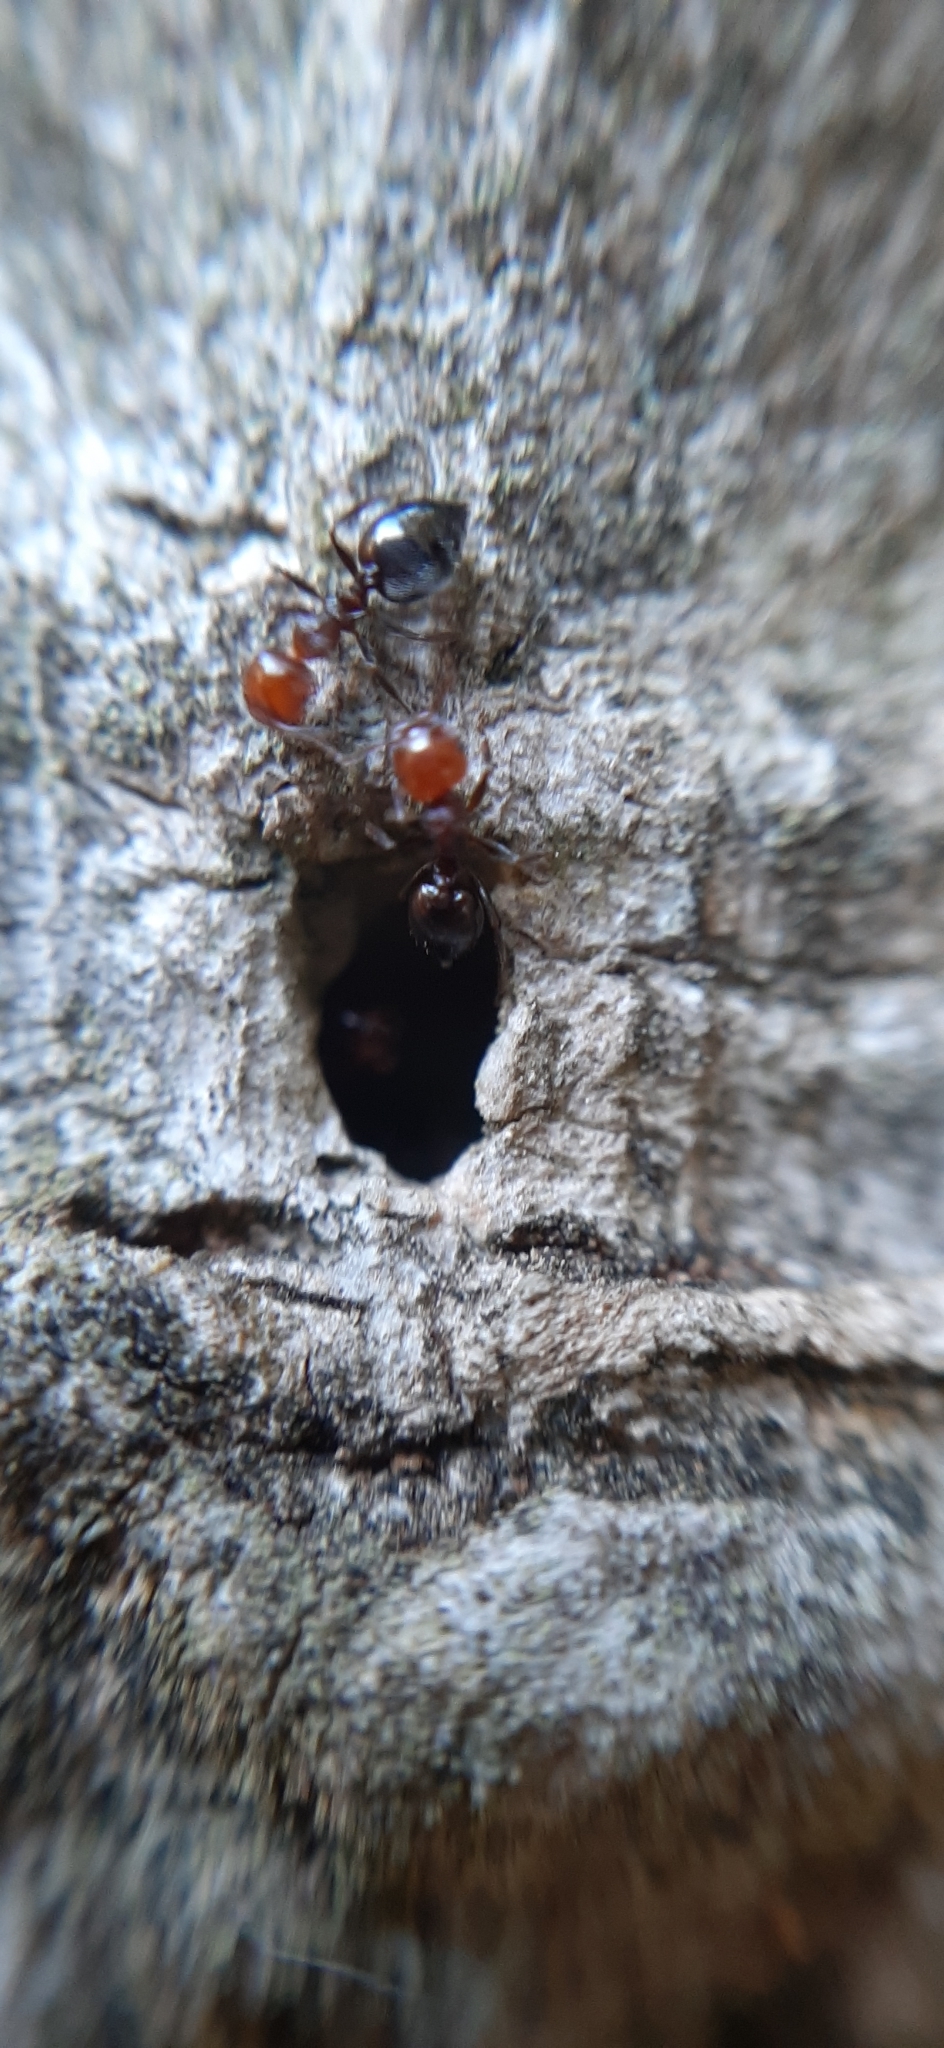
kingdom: Animalia
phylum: Arthropoda
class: Insecta
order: Hymenoptera
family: Formicidae
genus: Crematogaster
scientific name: Crematogaster scutellaris
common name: Fourmi du liège
